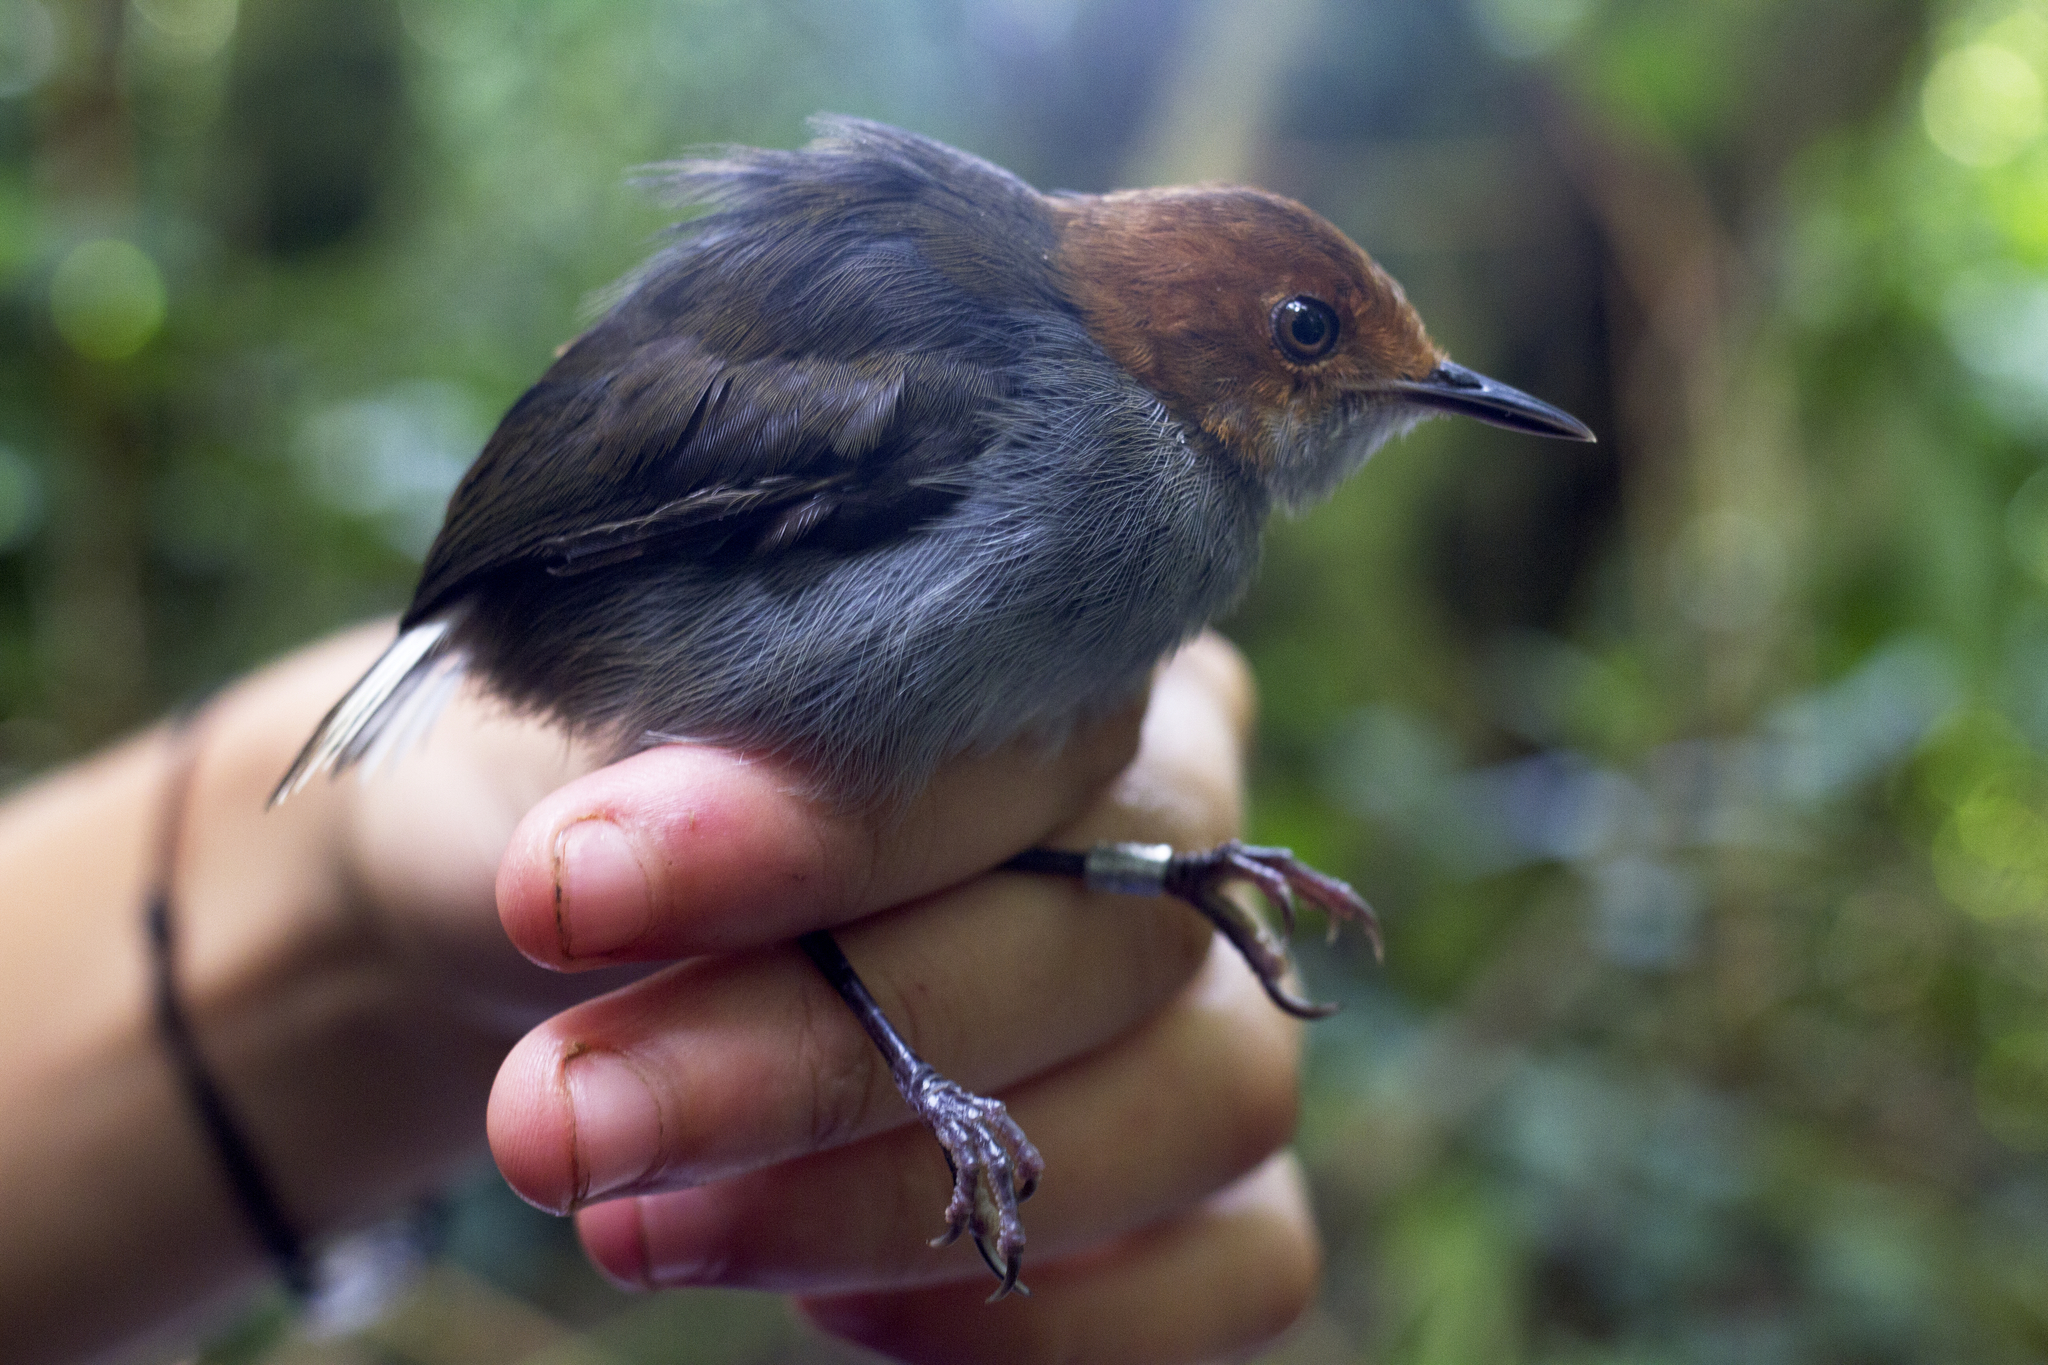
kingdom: Animalia
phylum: Chordata
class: Aves
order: Passeriformes
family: Cisticolidae
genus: Poliolais
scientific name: Poliolais lopezi
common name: White-tailed warbler
